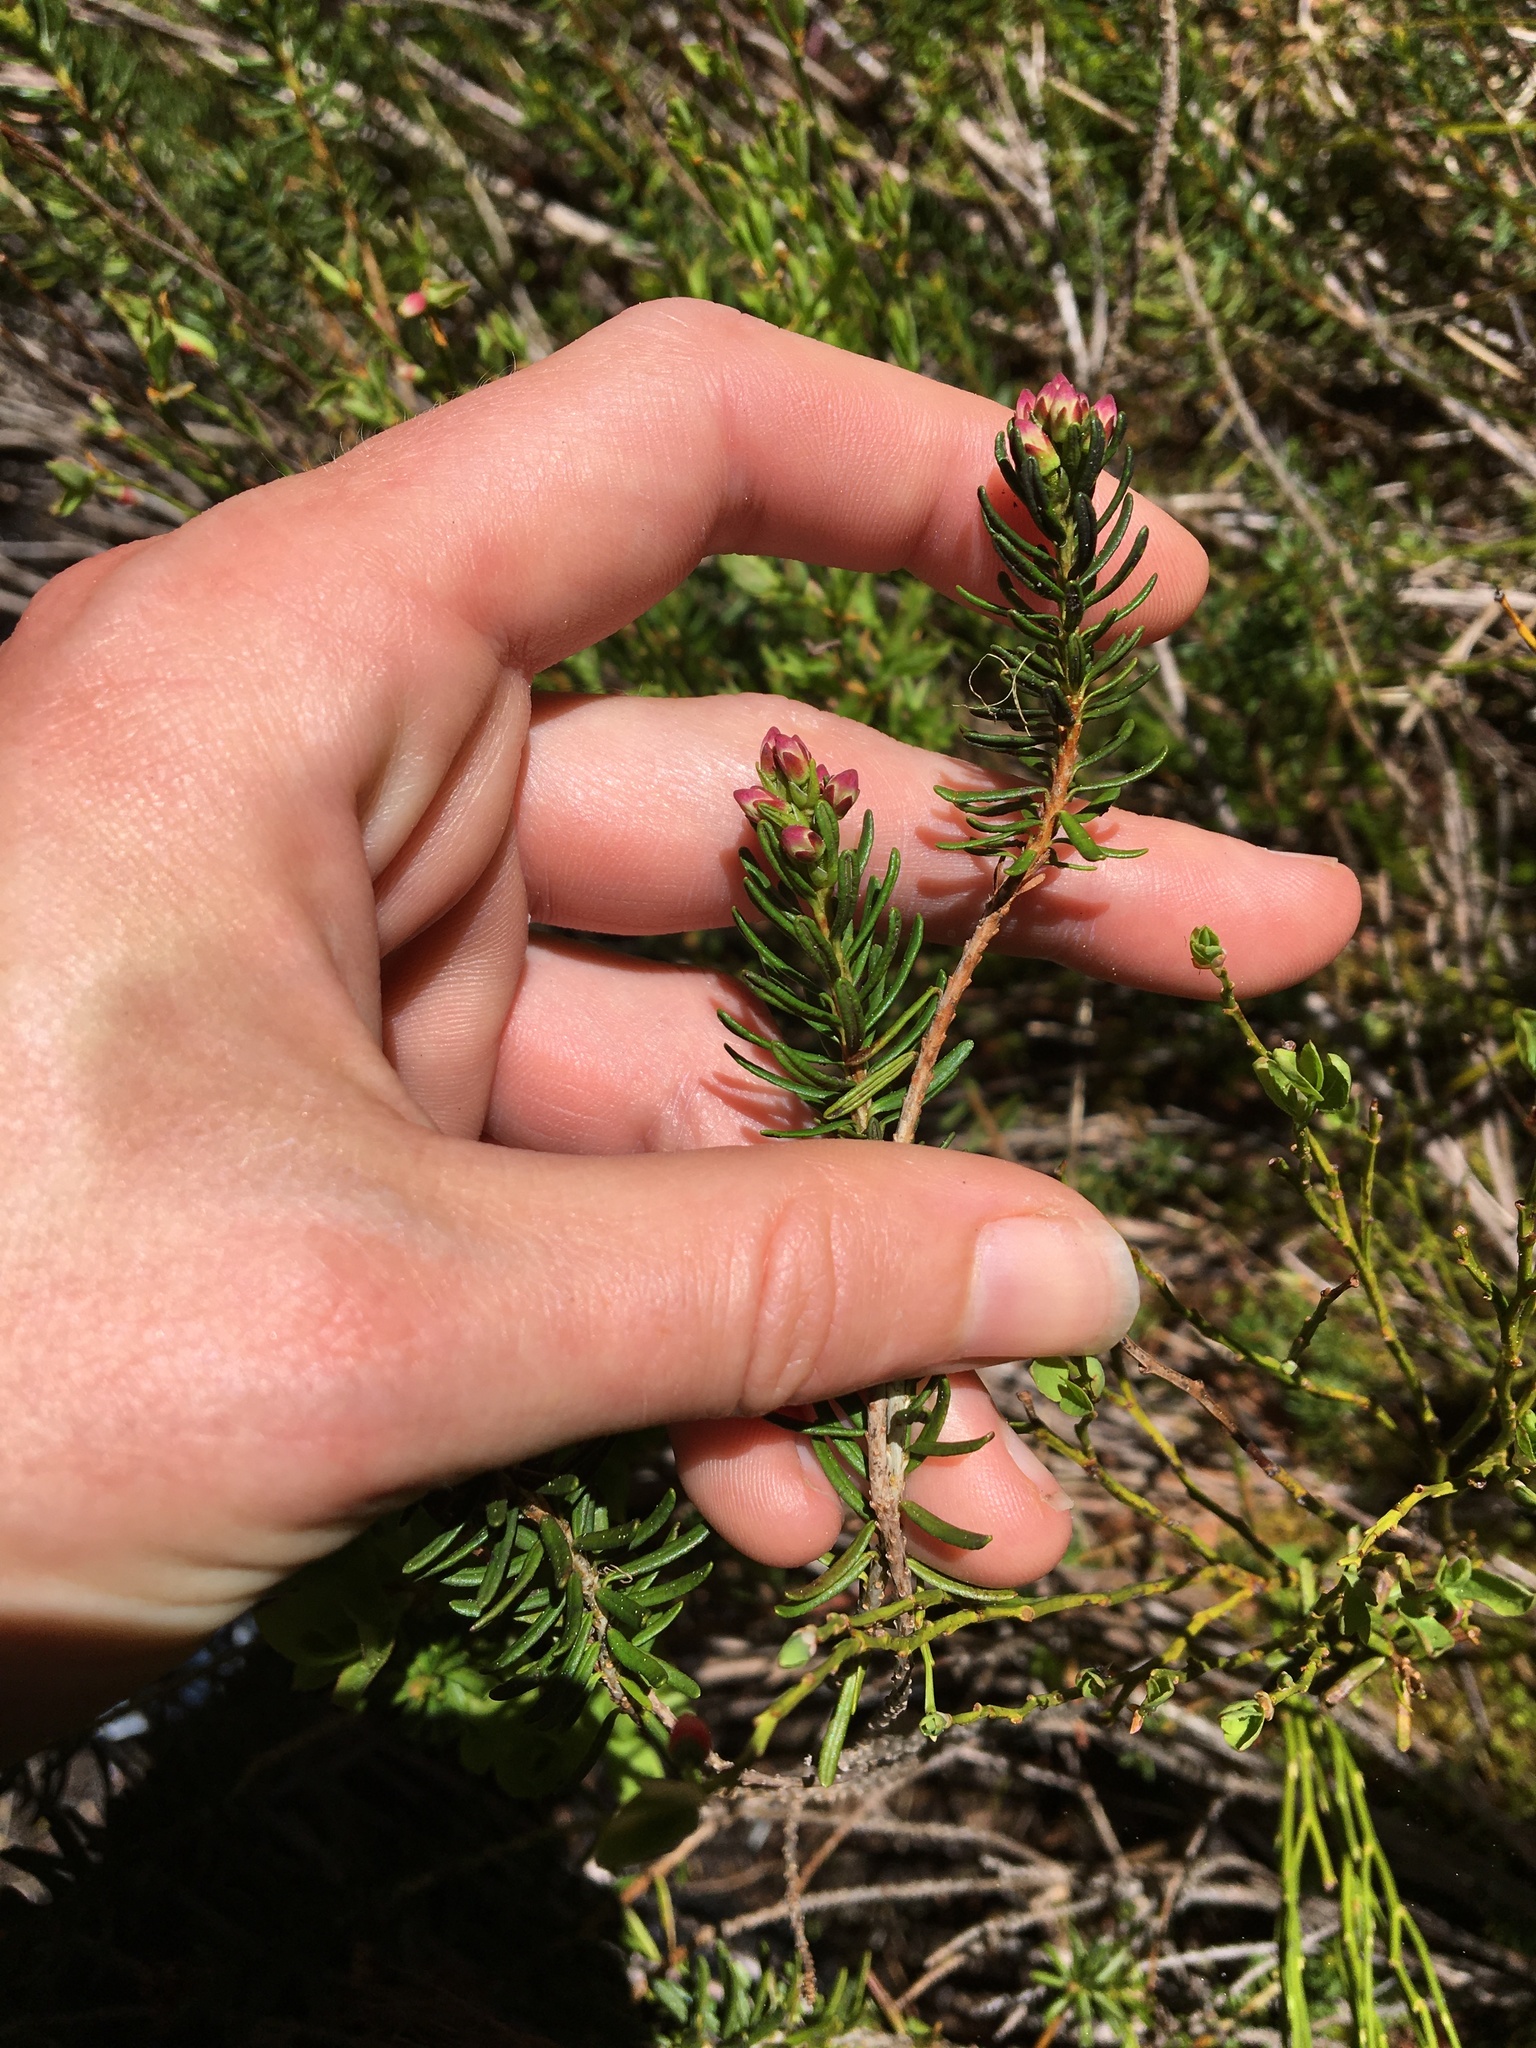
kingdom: Plantae
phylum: Tracheophyta
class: Magnoliopsida
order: Ericales
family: Ericaceae
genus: Phyllodoce
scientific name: Phyllodoce empetriformis
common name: Pink mountain heather
